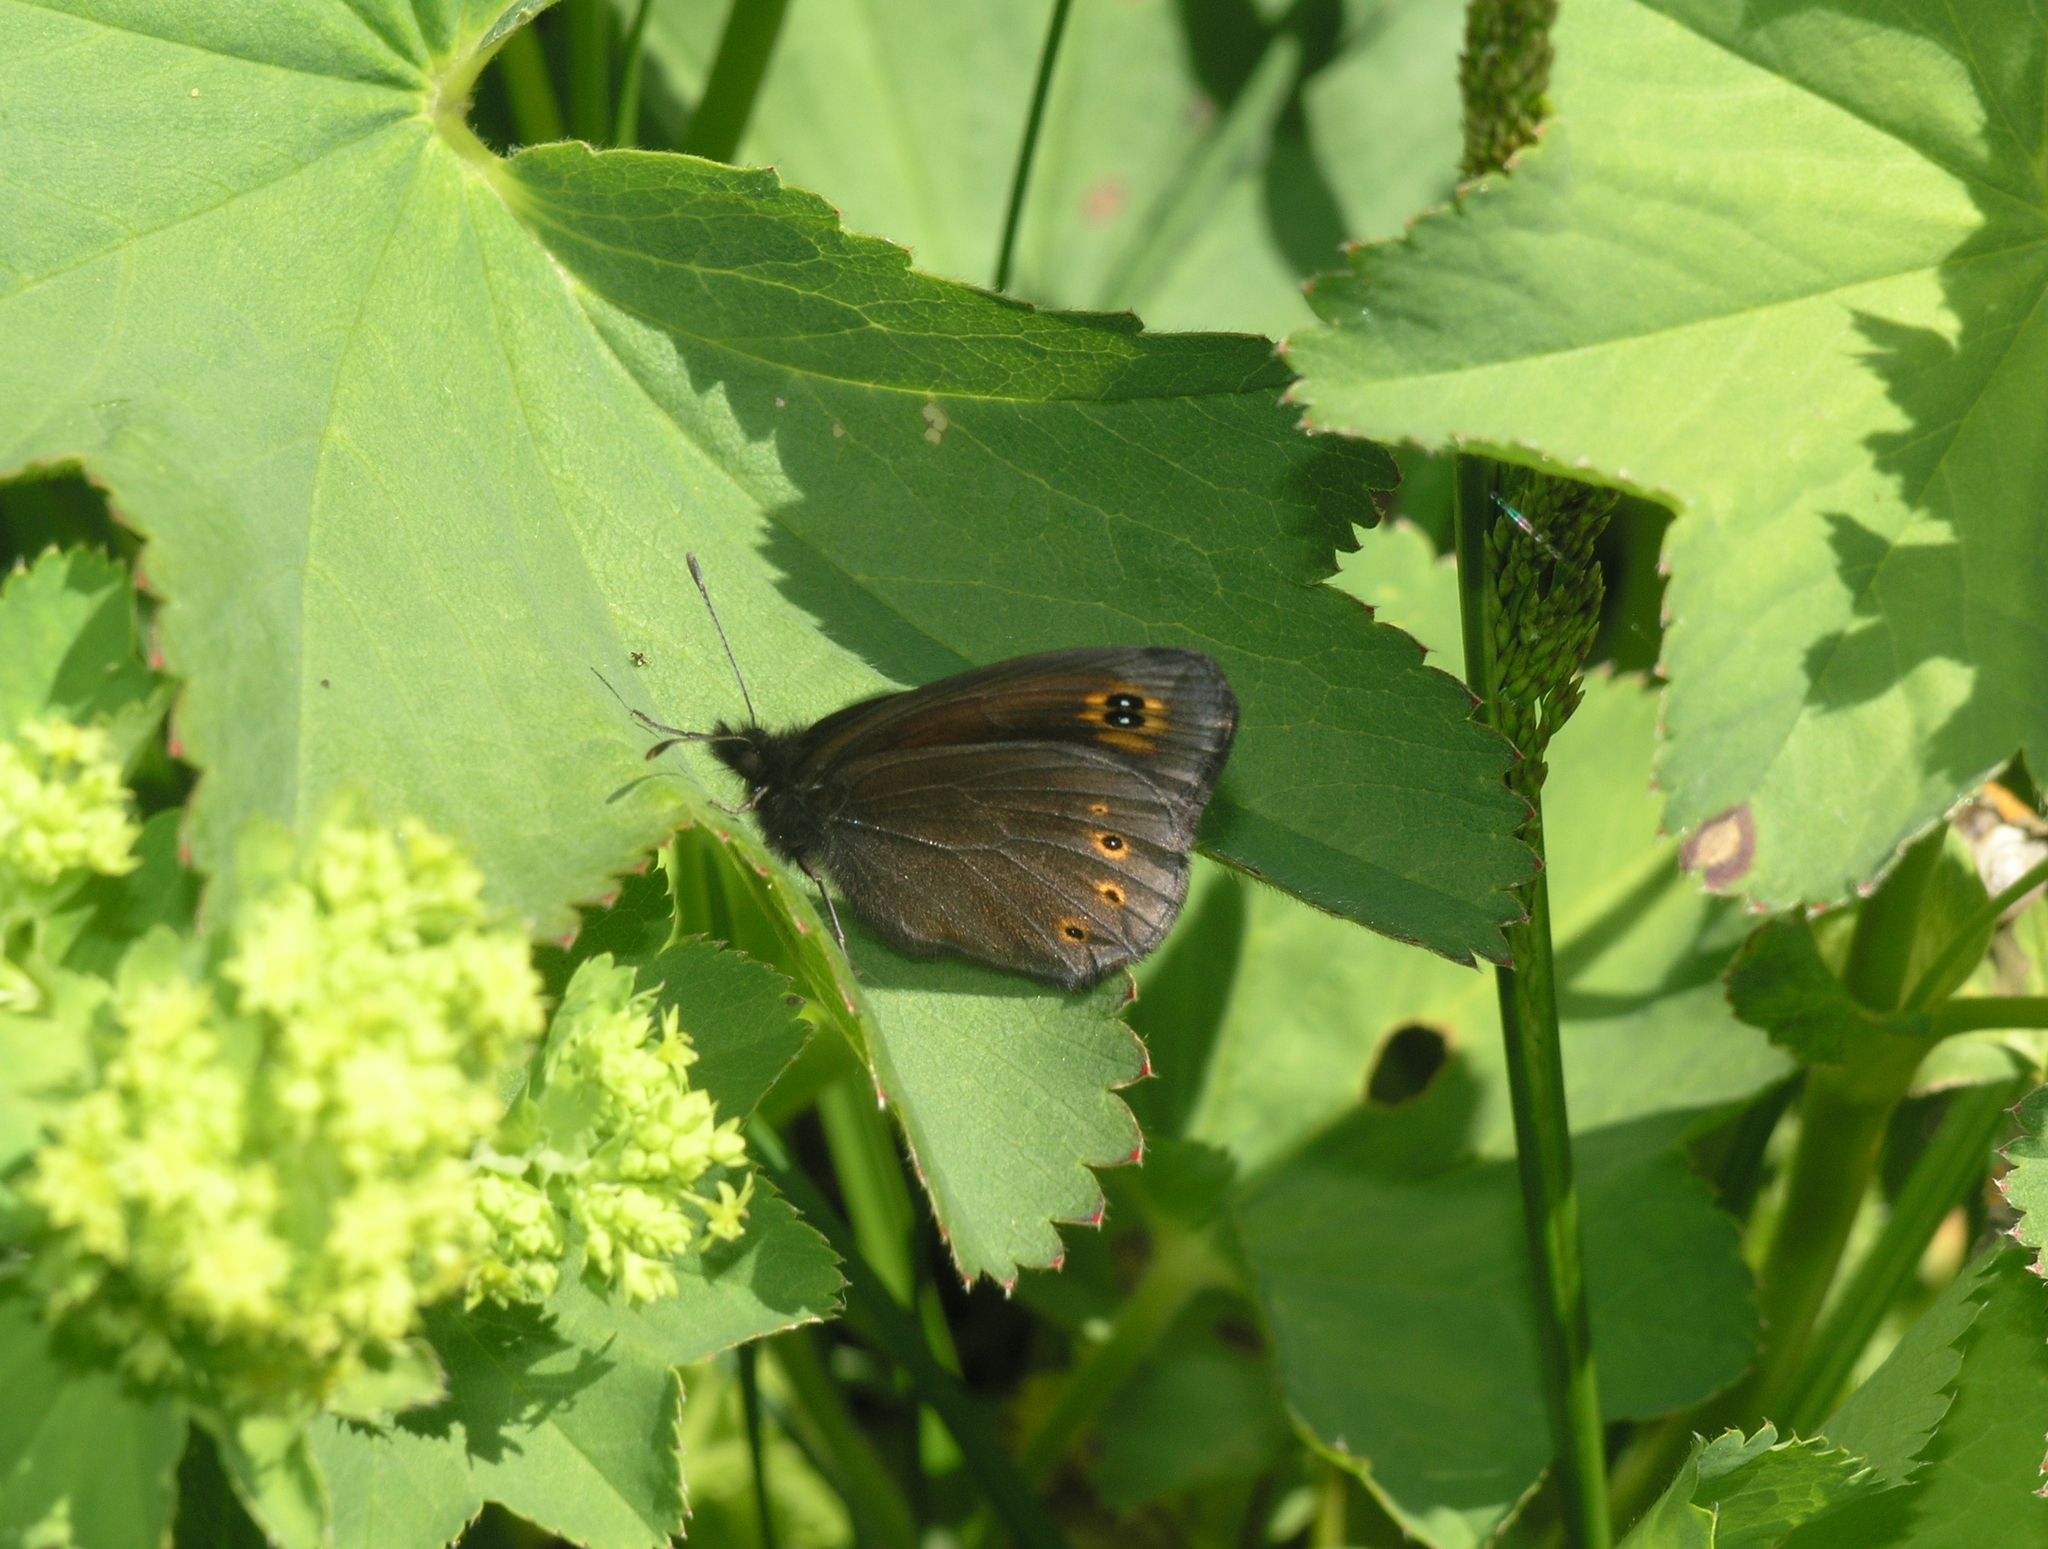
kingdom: Animalia
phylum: Arthropoda
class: Insecta
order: Lepidoptera
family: Nymphalidae
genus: Erebia
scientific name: Erebia medusa
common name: Woodland ringlet
